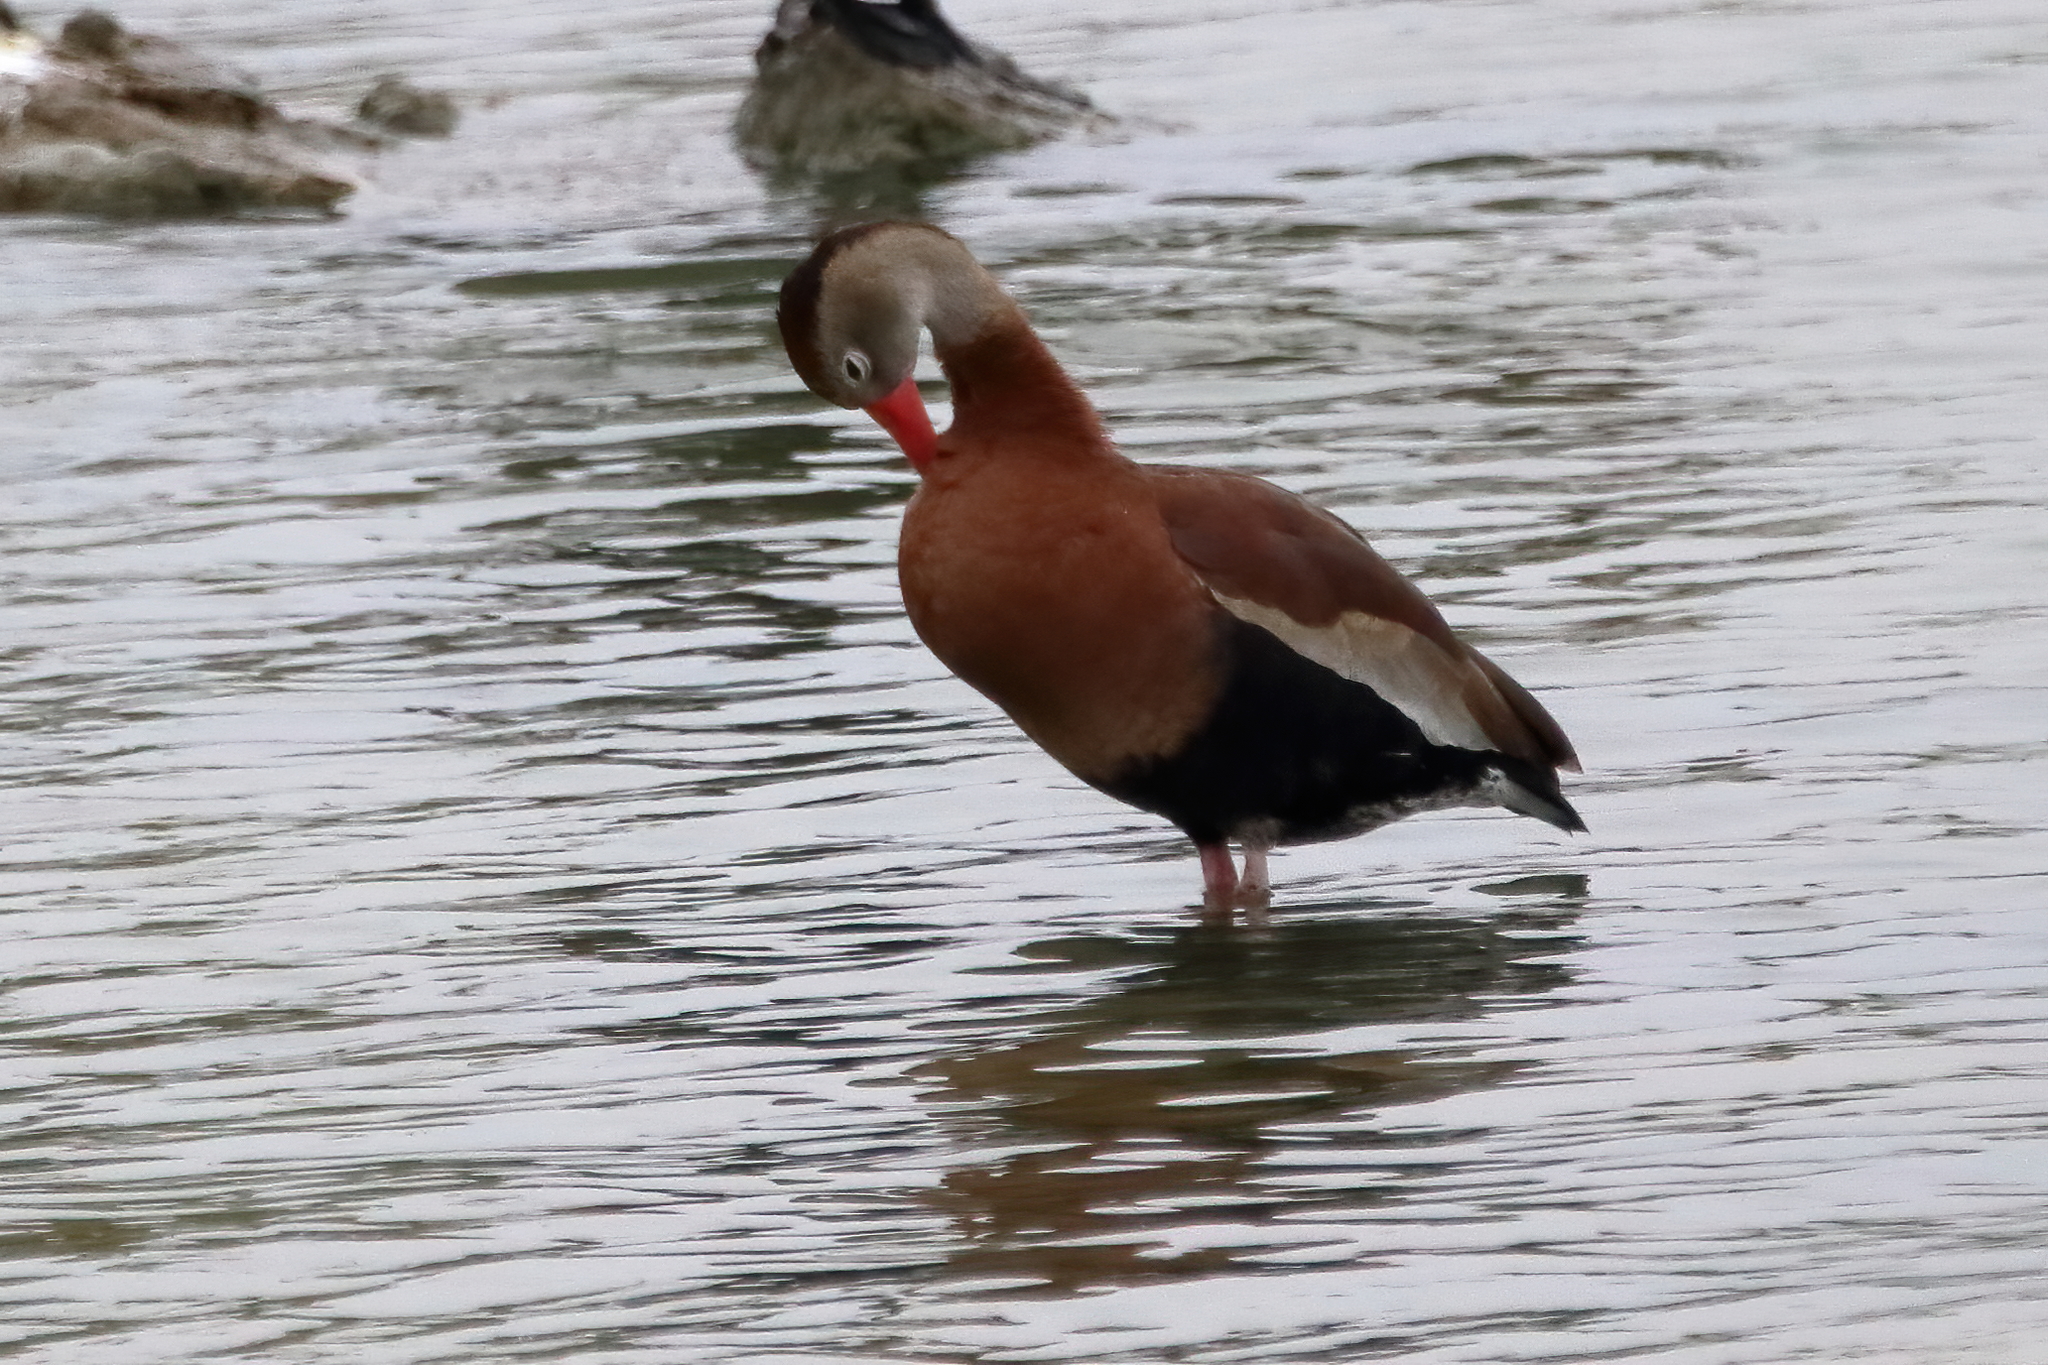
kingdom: Animalia
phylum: Chordata
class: Aves
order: Anseriformes
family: Anatidae
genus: Dendrocygna
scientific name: Dendrocygna autumnalis
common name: Black-bellied whistling duck
